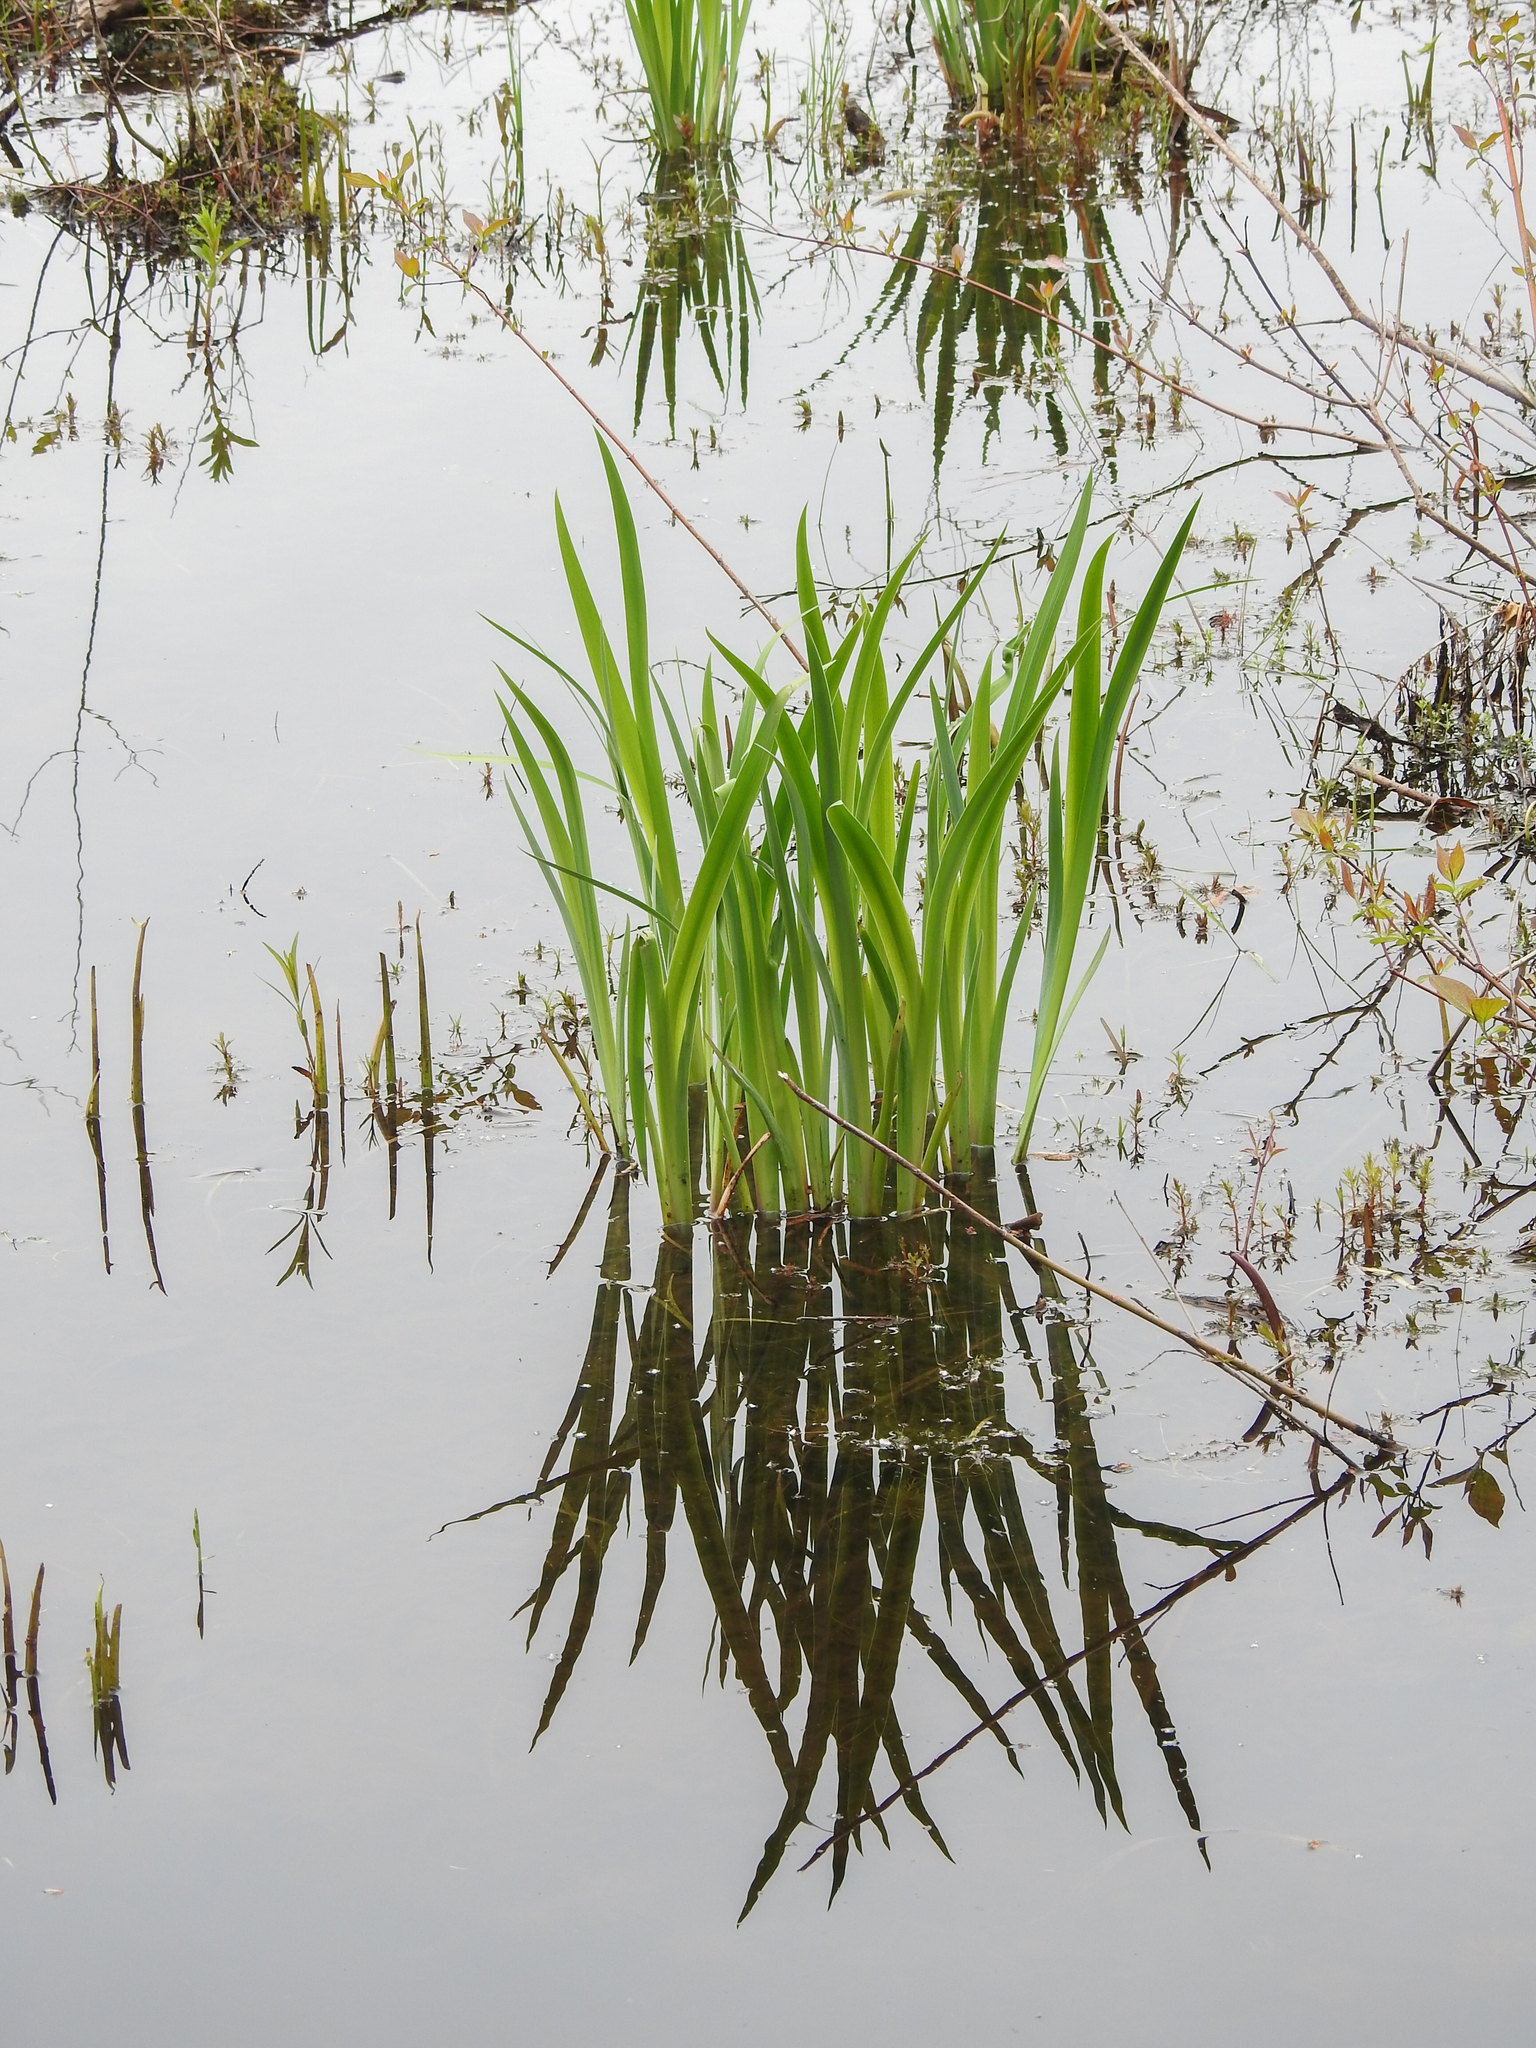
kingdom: Plantae
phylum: Tracheophyta
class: Liliopsida
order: Asparagales
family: Iridaceae
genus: Iris
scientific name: Iris pseudacorus
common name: Yellow flag
